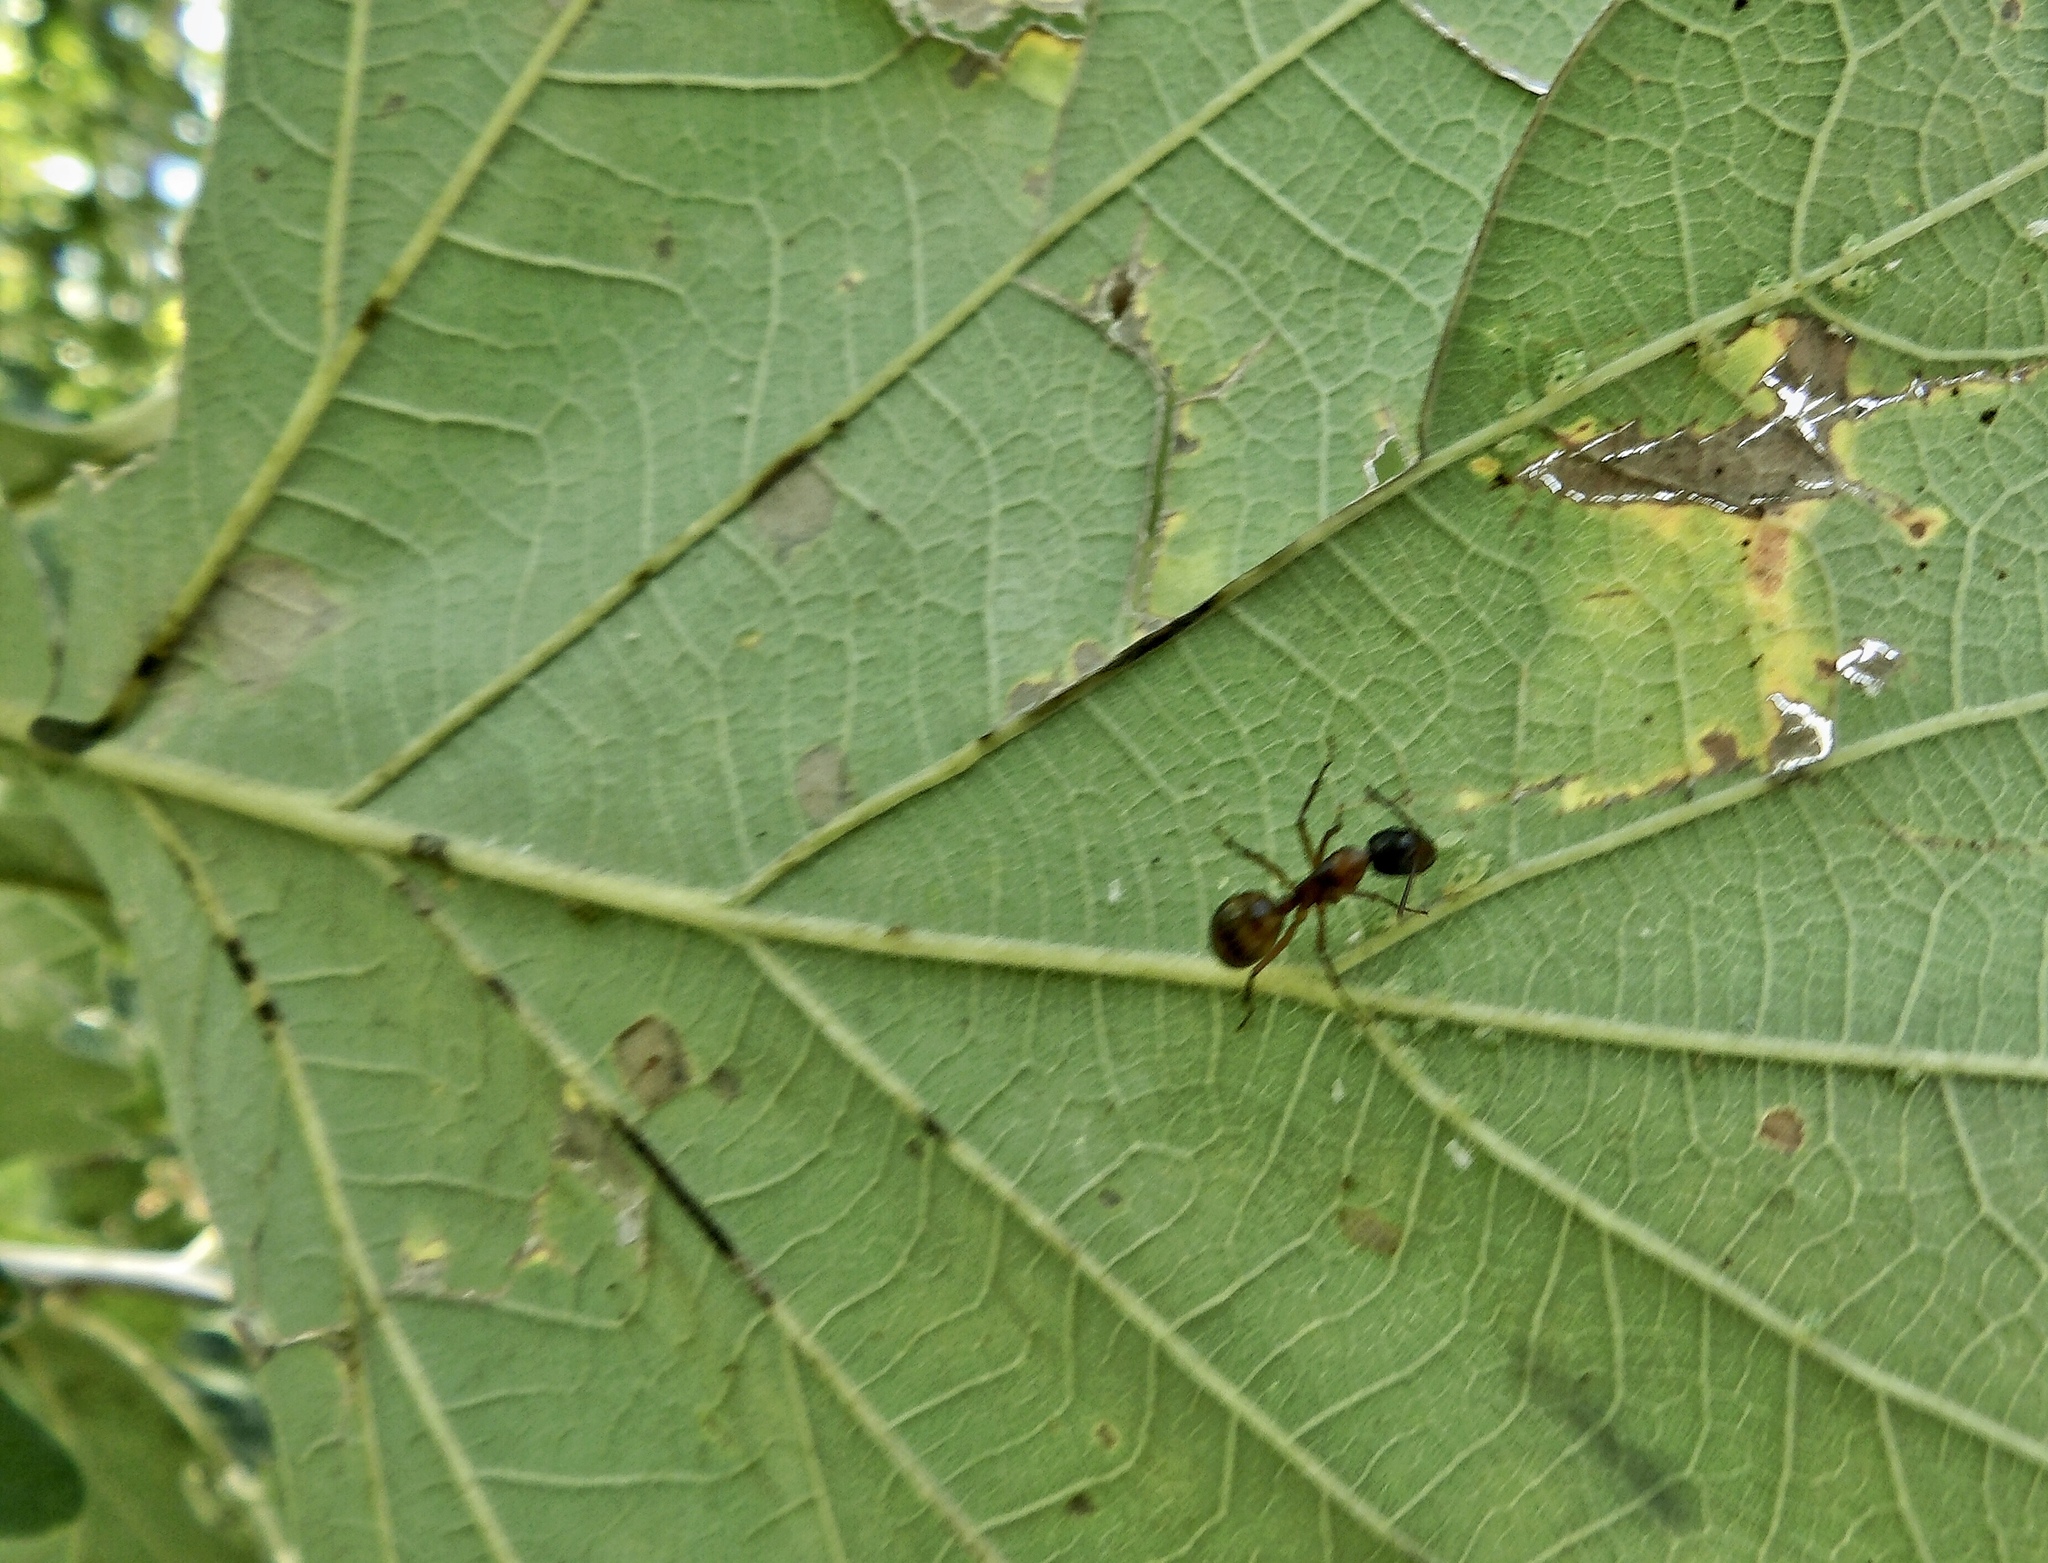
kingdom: Animalia
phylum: Arthropoda
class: Insecta
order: Hymenoptera
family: Formicidae
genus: Camponotus
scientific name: Camponotus americanus
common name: American carpenter ant
